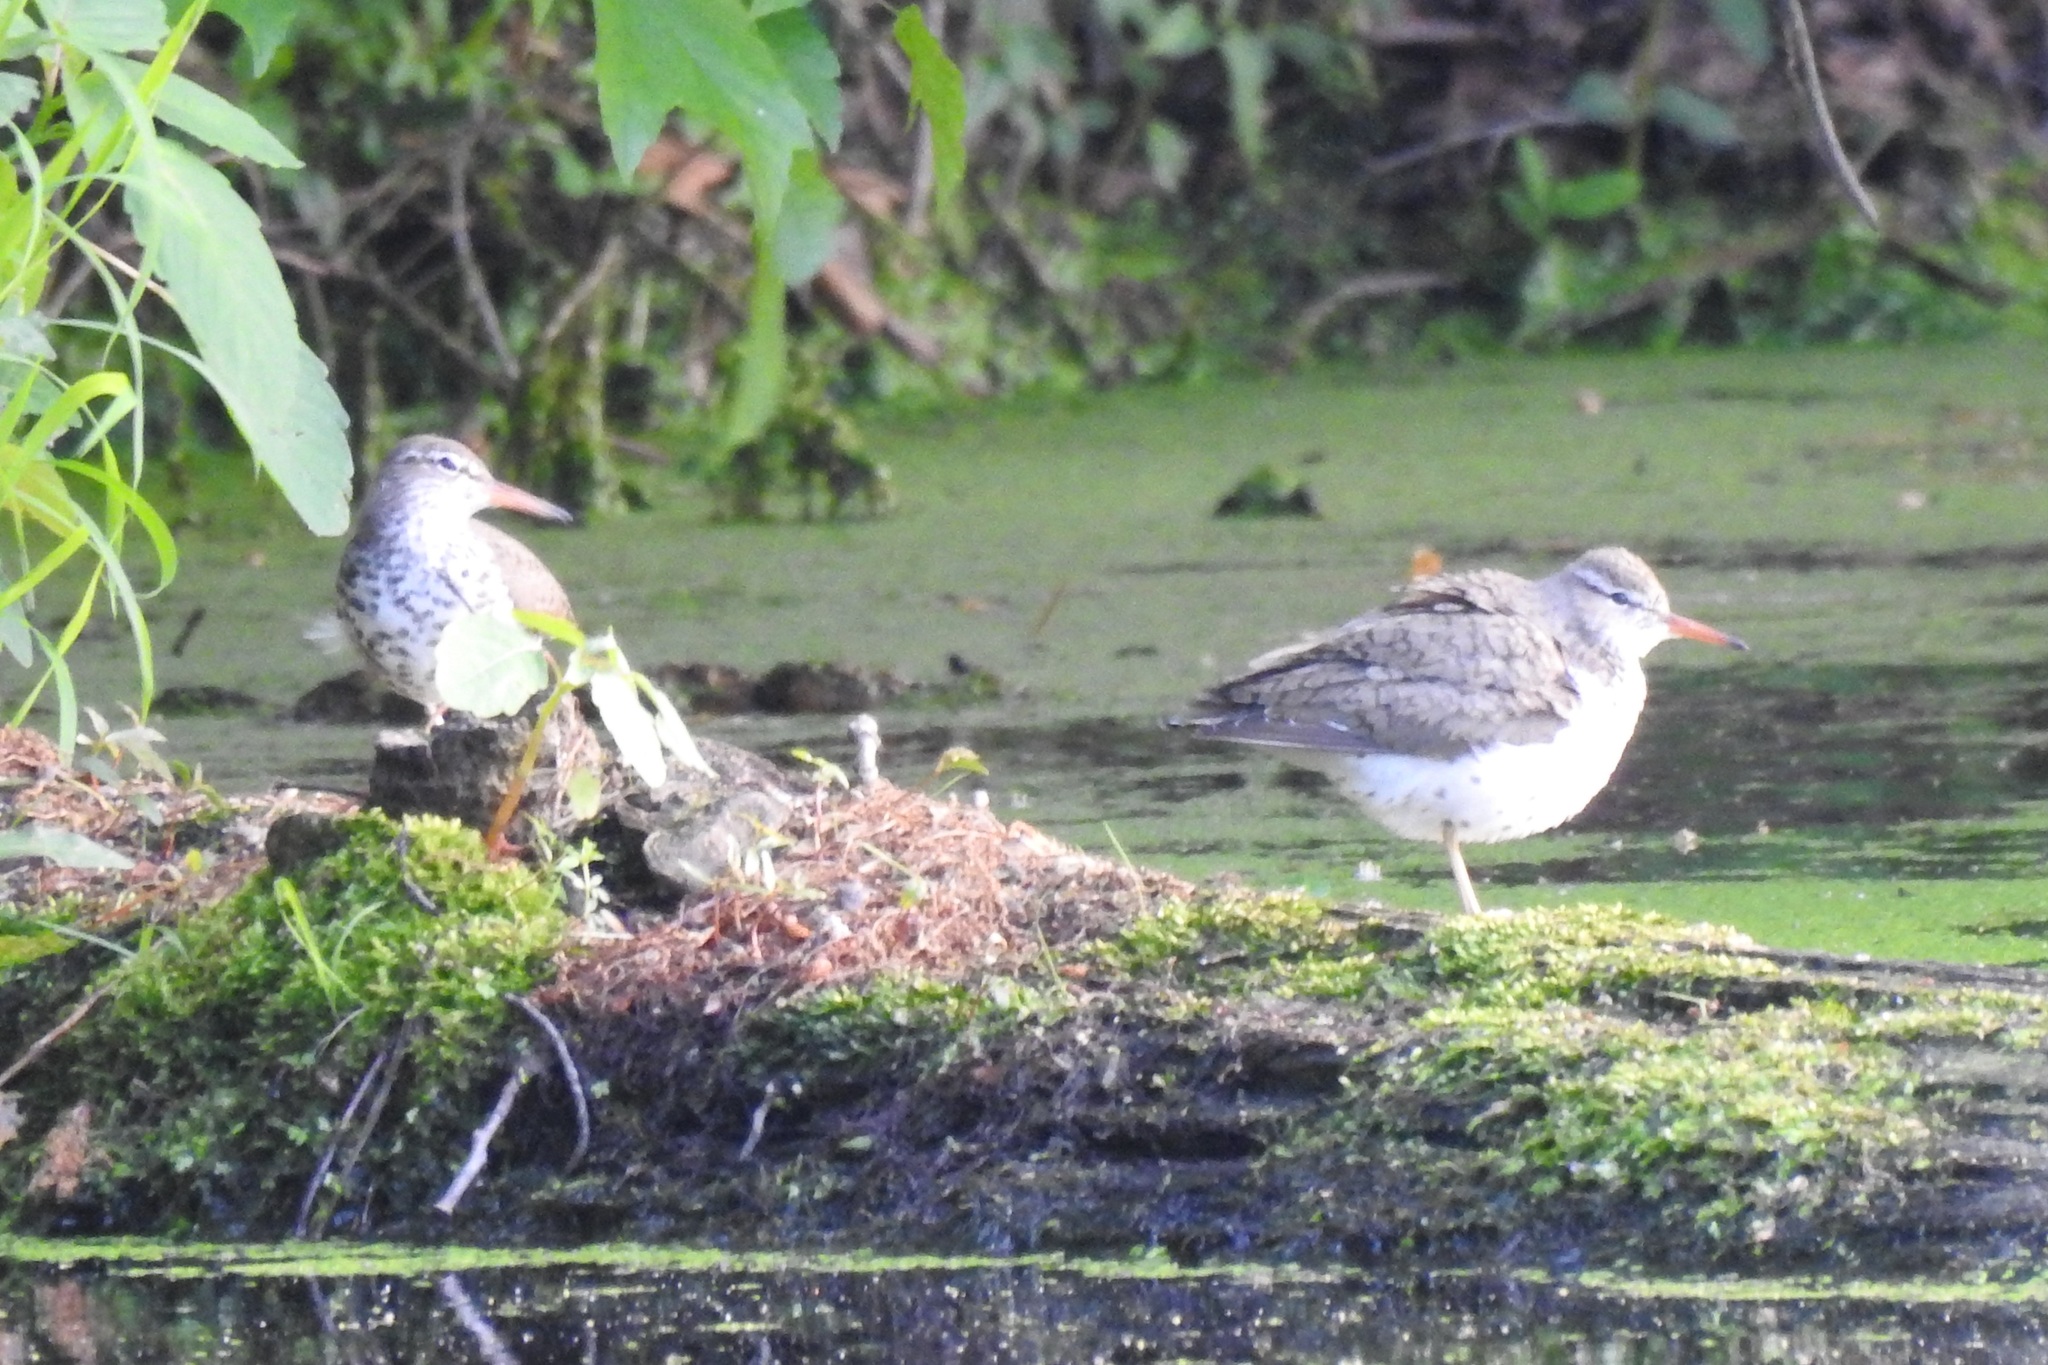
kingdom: Animalia
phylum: Chordata
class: Aves
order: Charadriiformes
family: Scolopacidae
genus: Actitis
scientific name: Actitis macularius
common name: Spotted sandpiper
